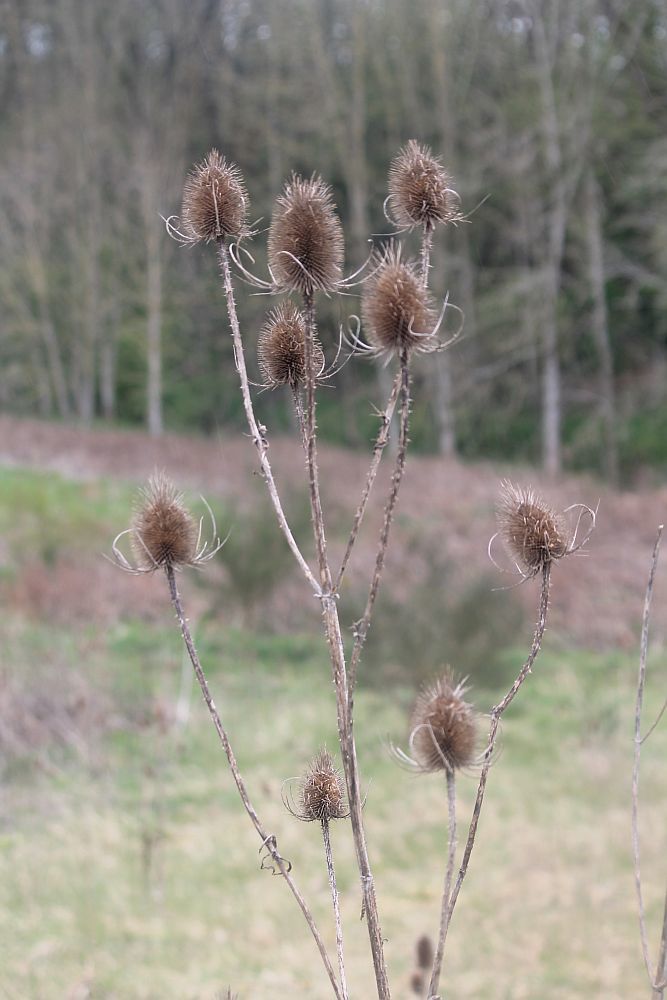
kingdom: Plantae
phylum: Tracheophyta
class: Magnoliopsida
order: Dipsacales
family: Caprifoliaceae
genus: Dipsacus
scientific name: Dipsacus fullonum
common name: Teasel
